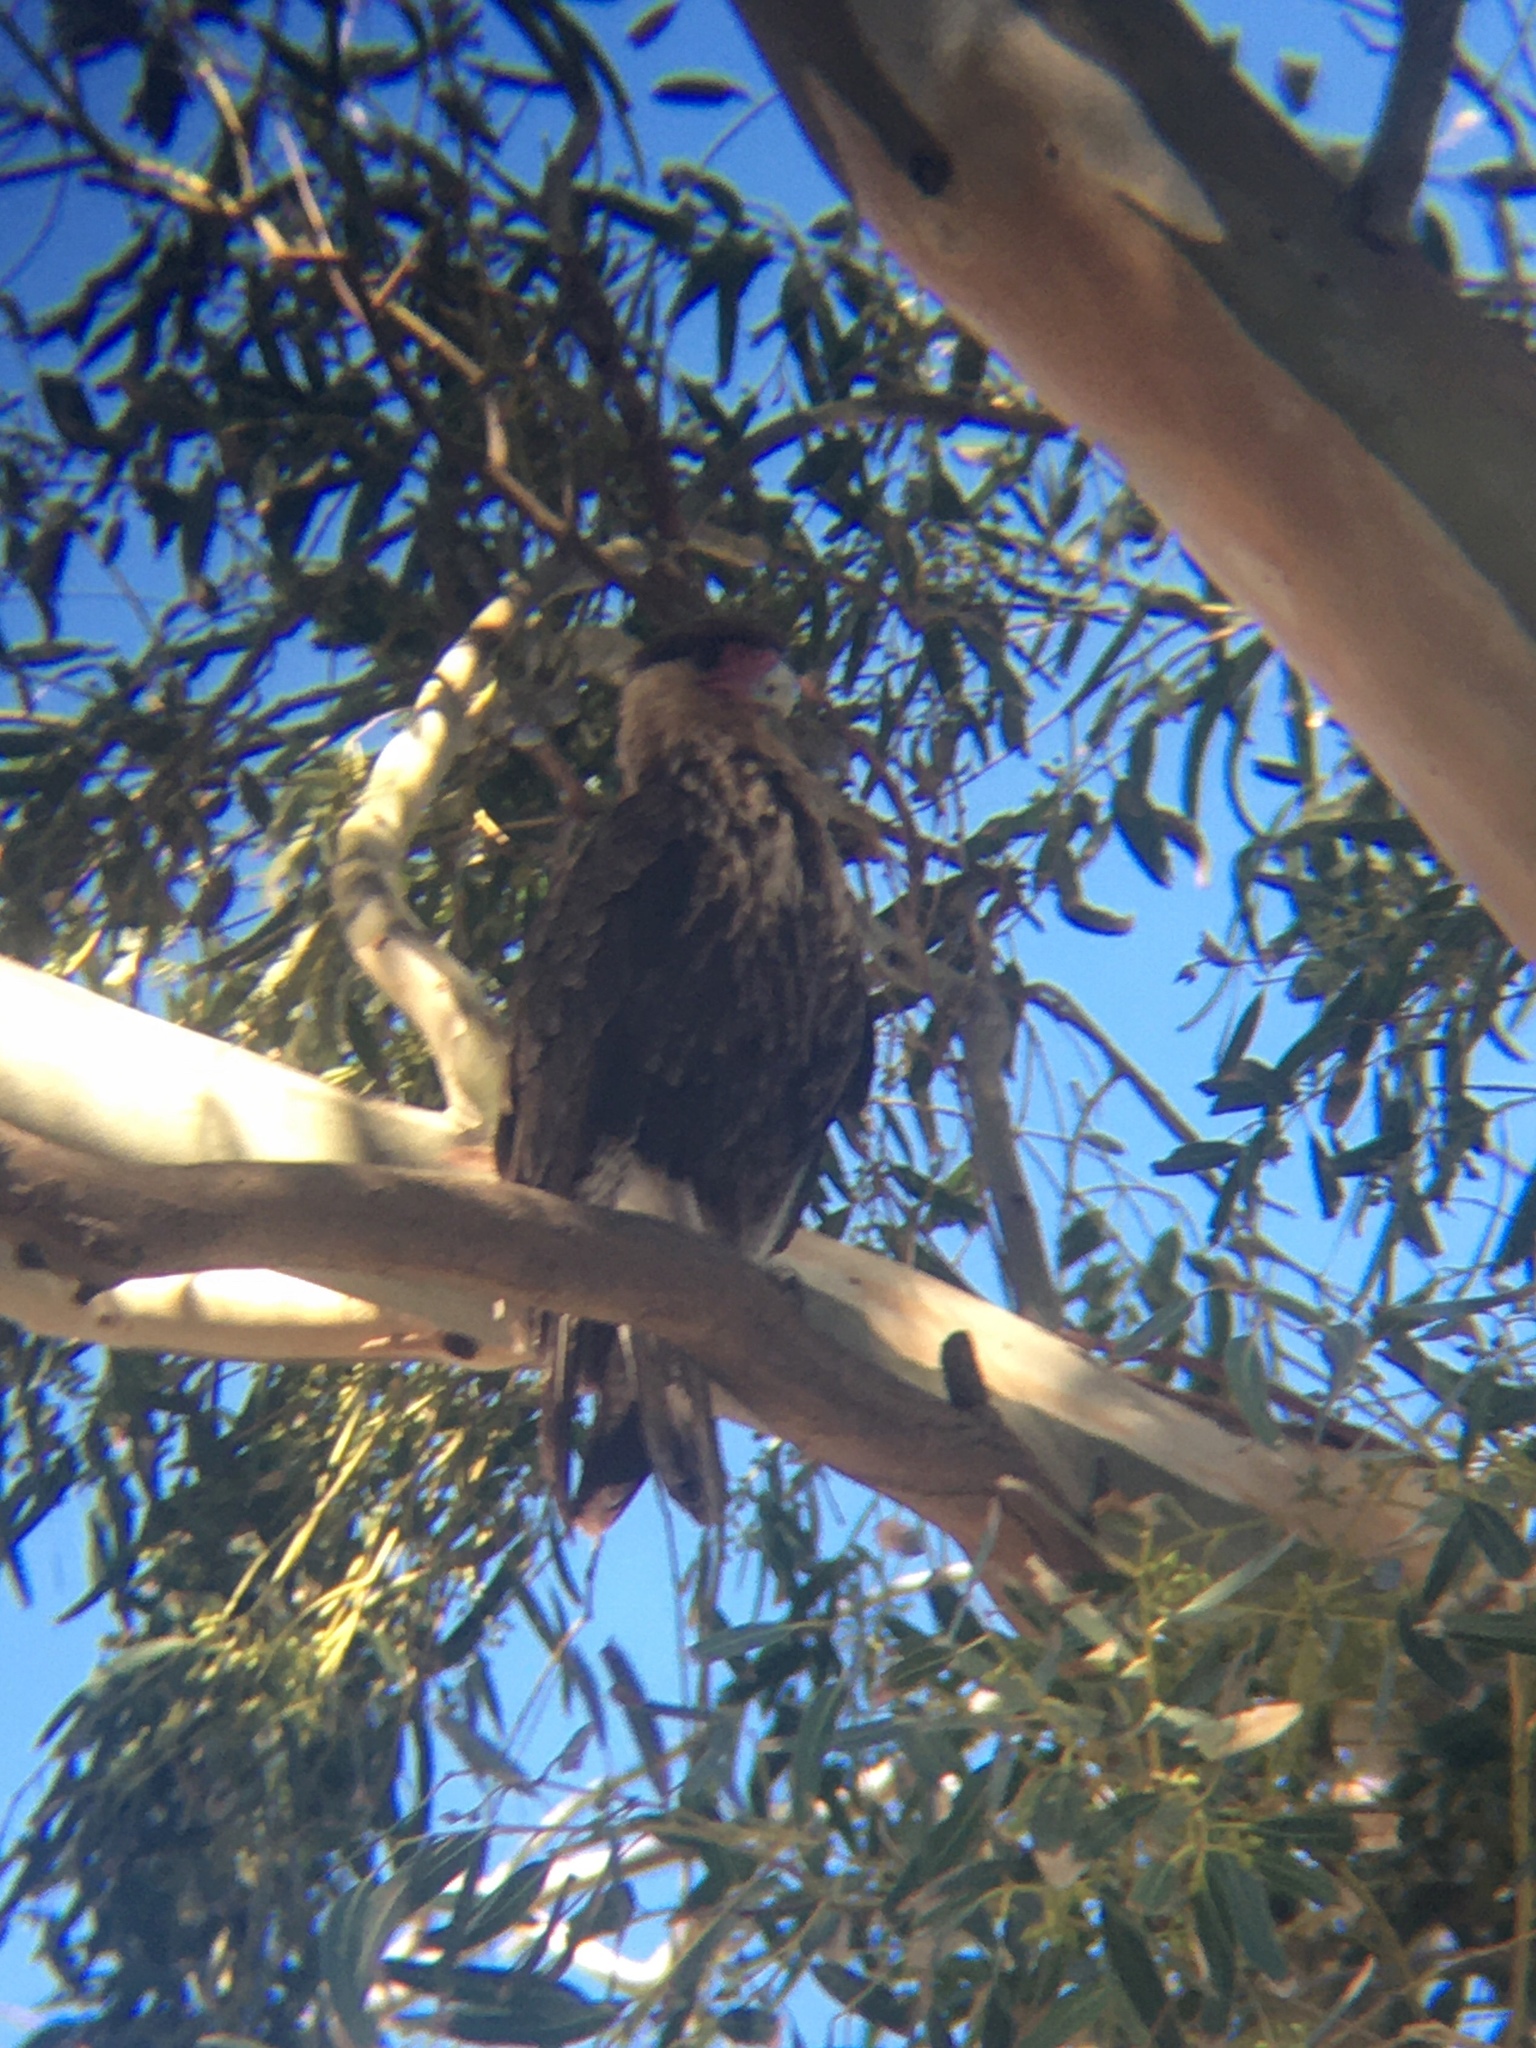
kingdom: Animalia
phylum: Chordata
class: Aves
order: Falconiformes
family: Falconidae
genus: Caracara
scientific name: Caracara plancus
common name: Southern caracara
